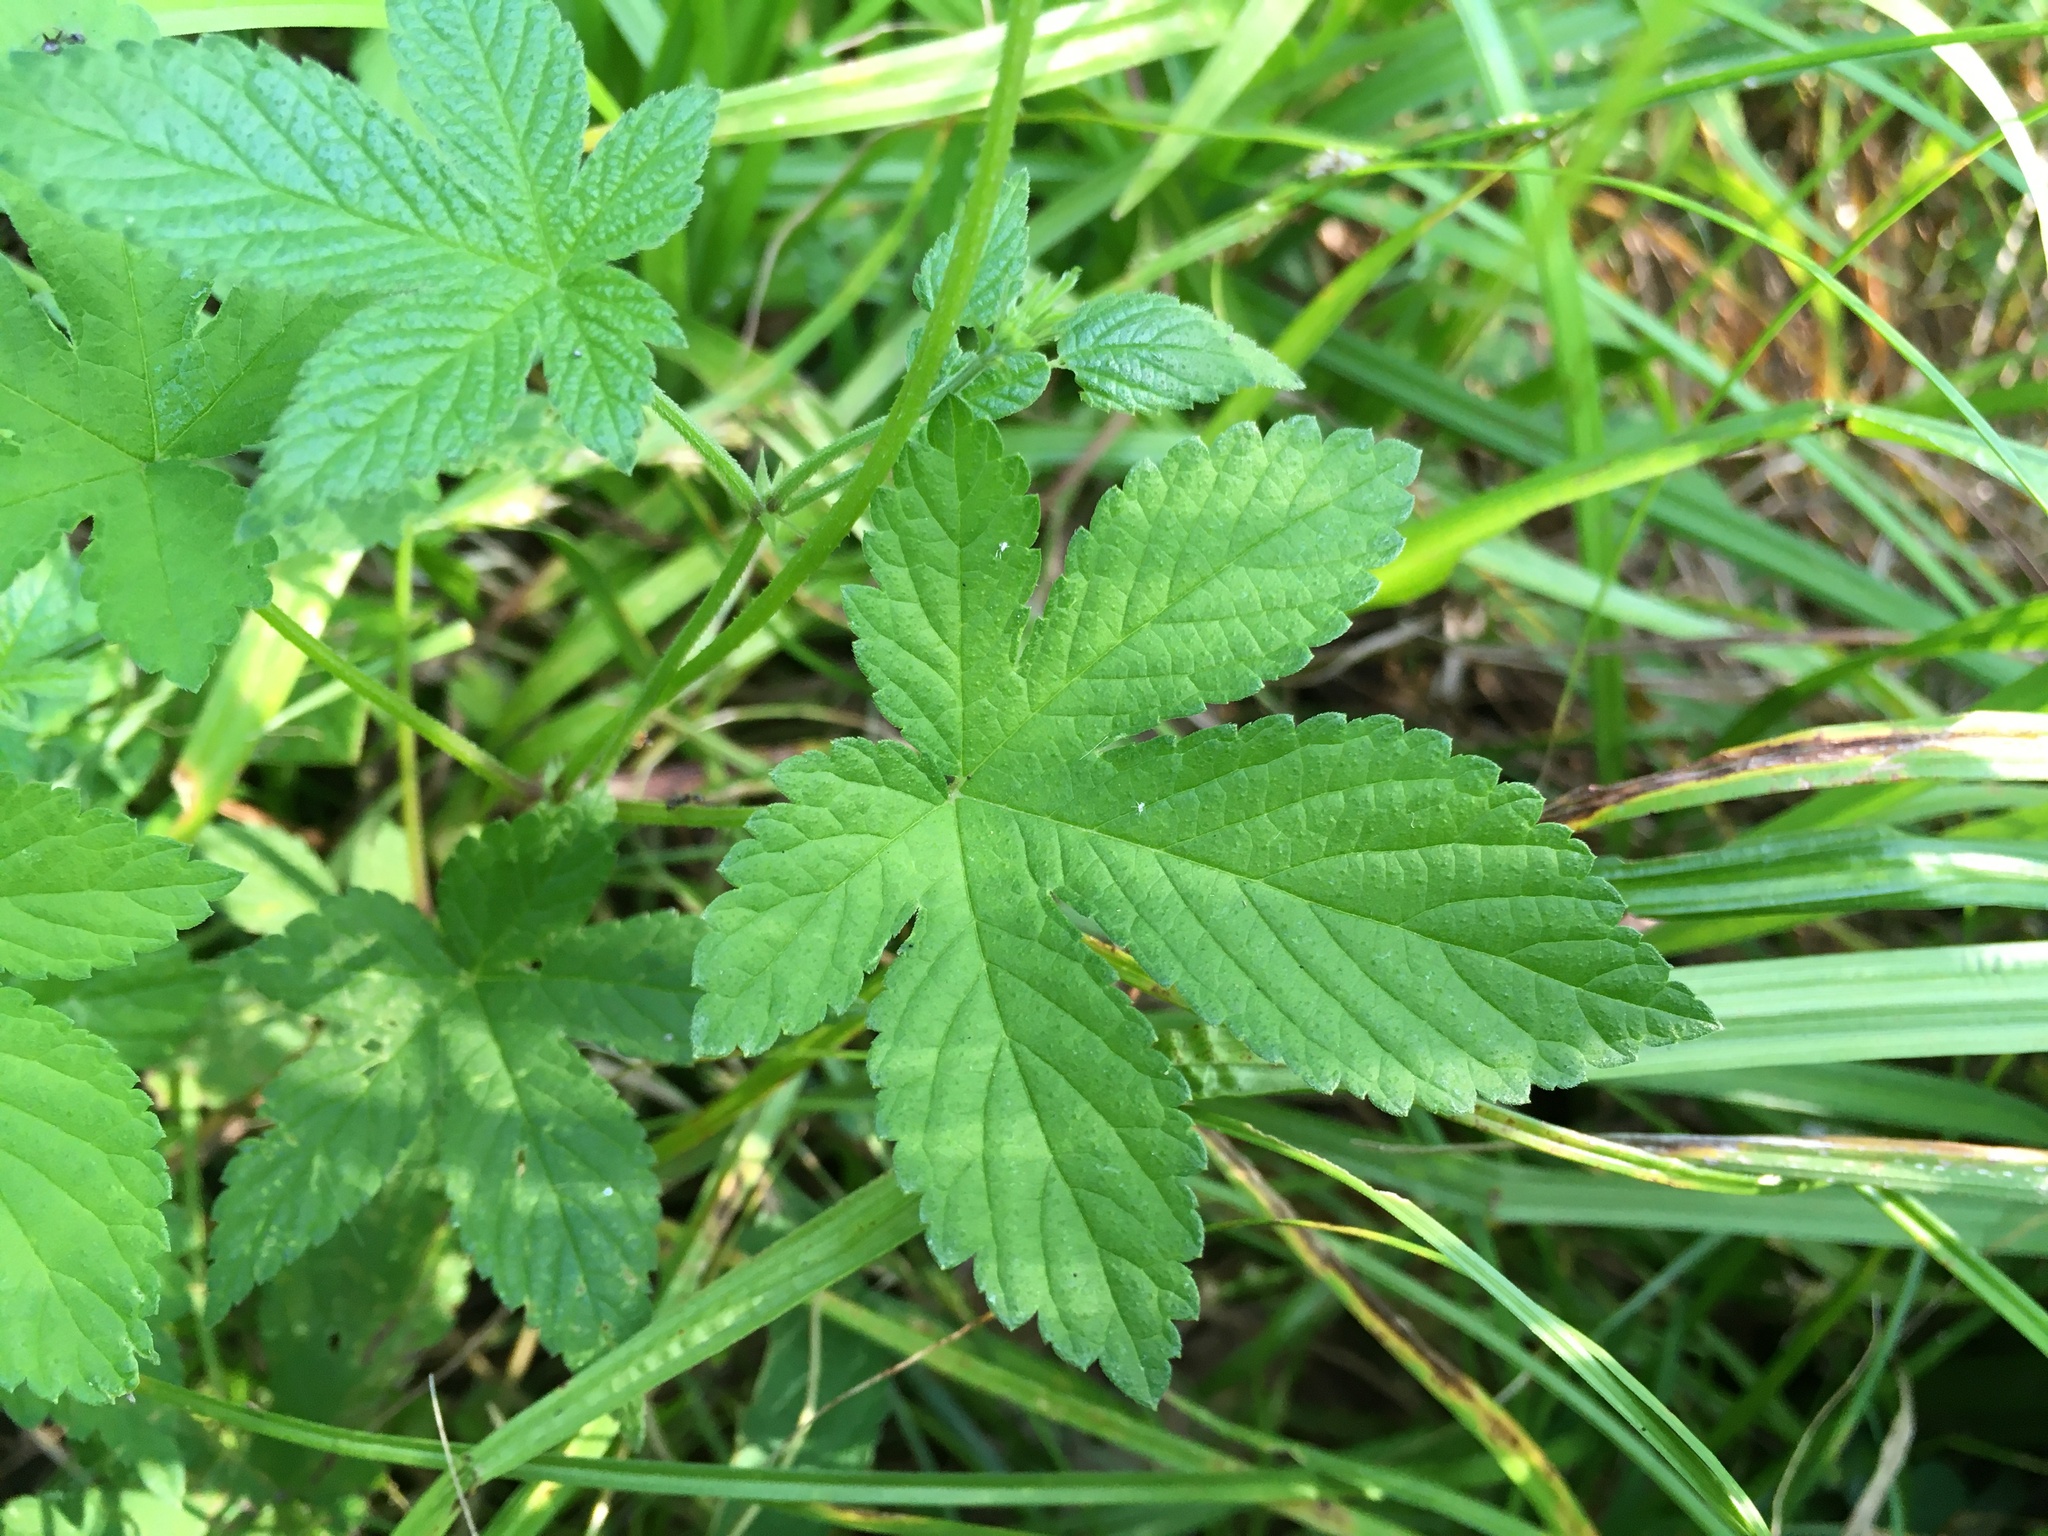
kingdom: Plantae
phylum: Tracheophyta
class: Magnoliopsida
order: Rosales
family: Cannabaceae
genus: Humulus
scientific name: Humulus scandens
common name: Japanese hop
